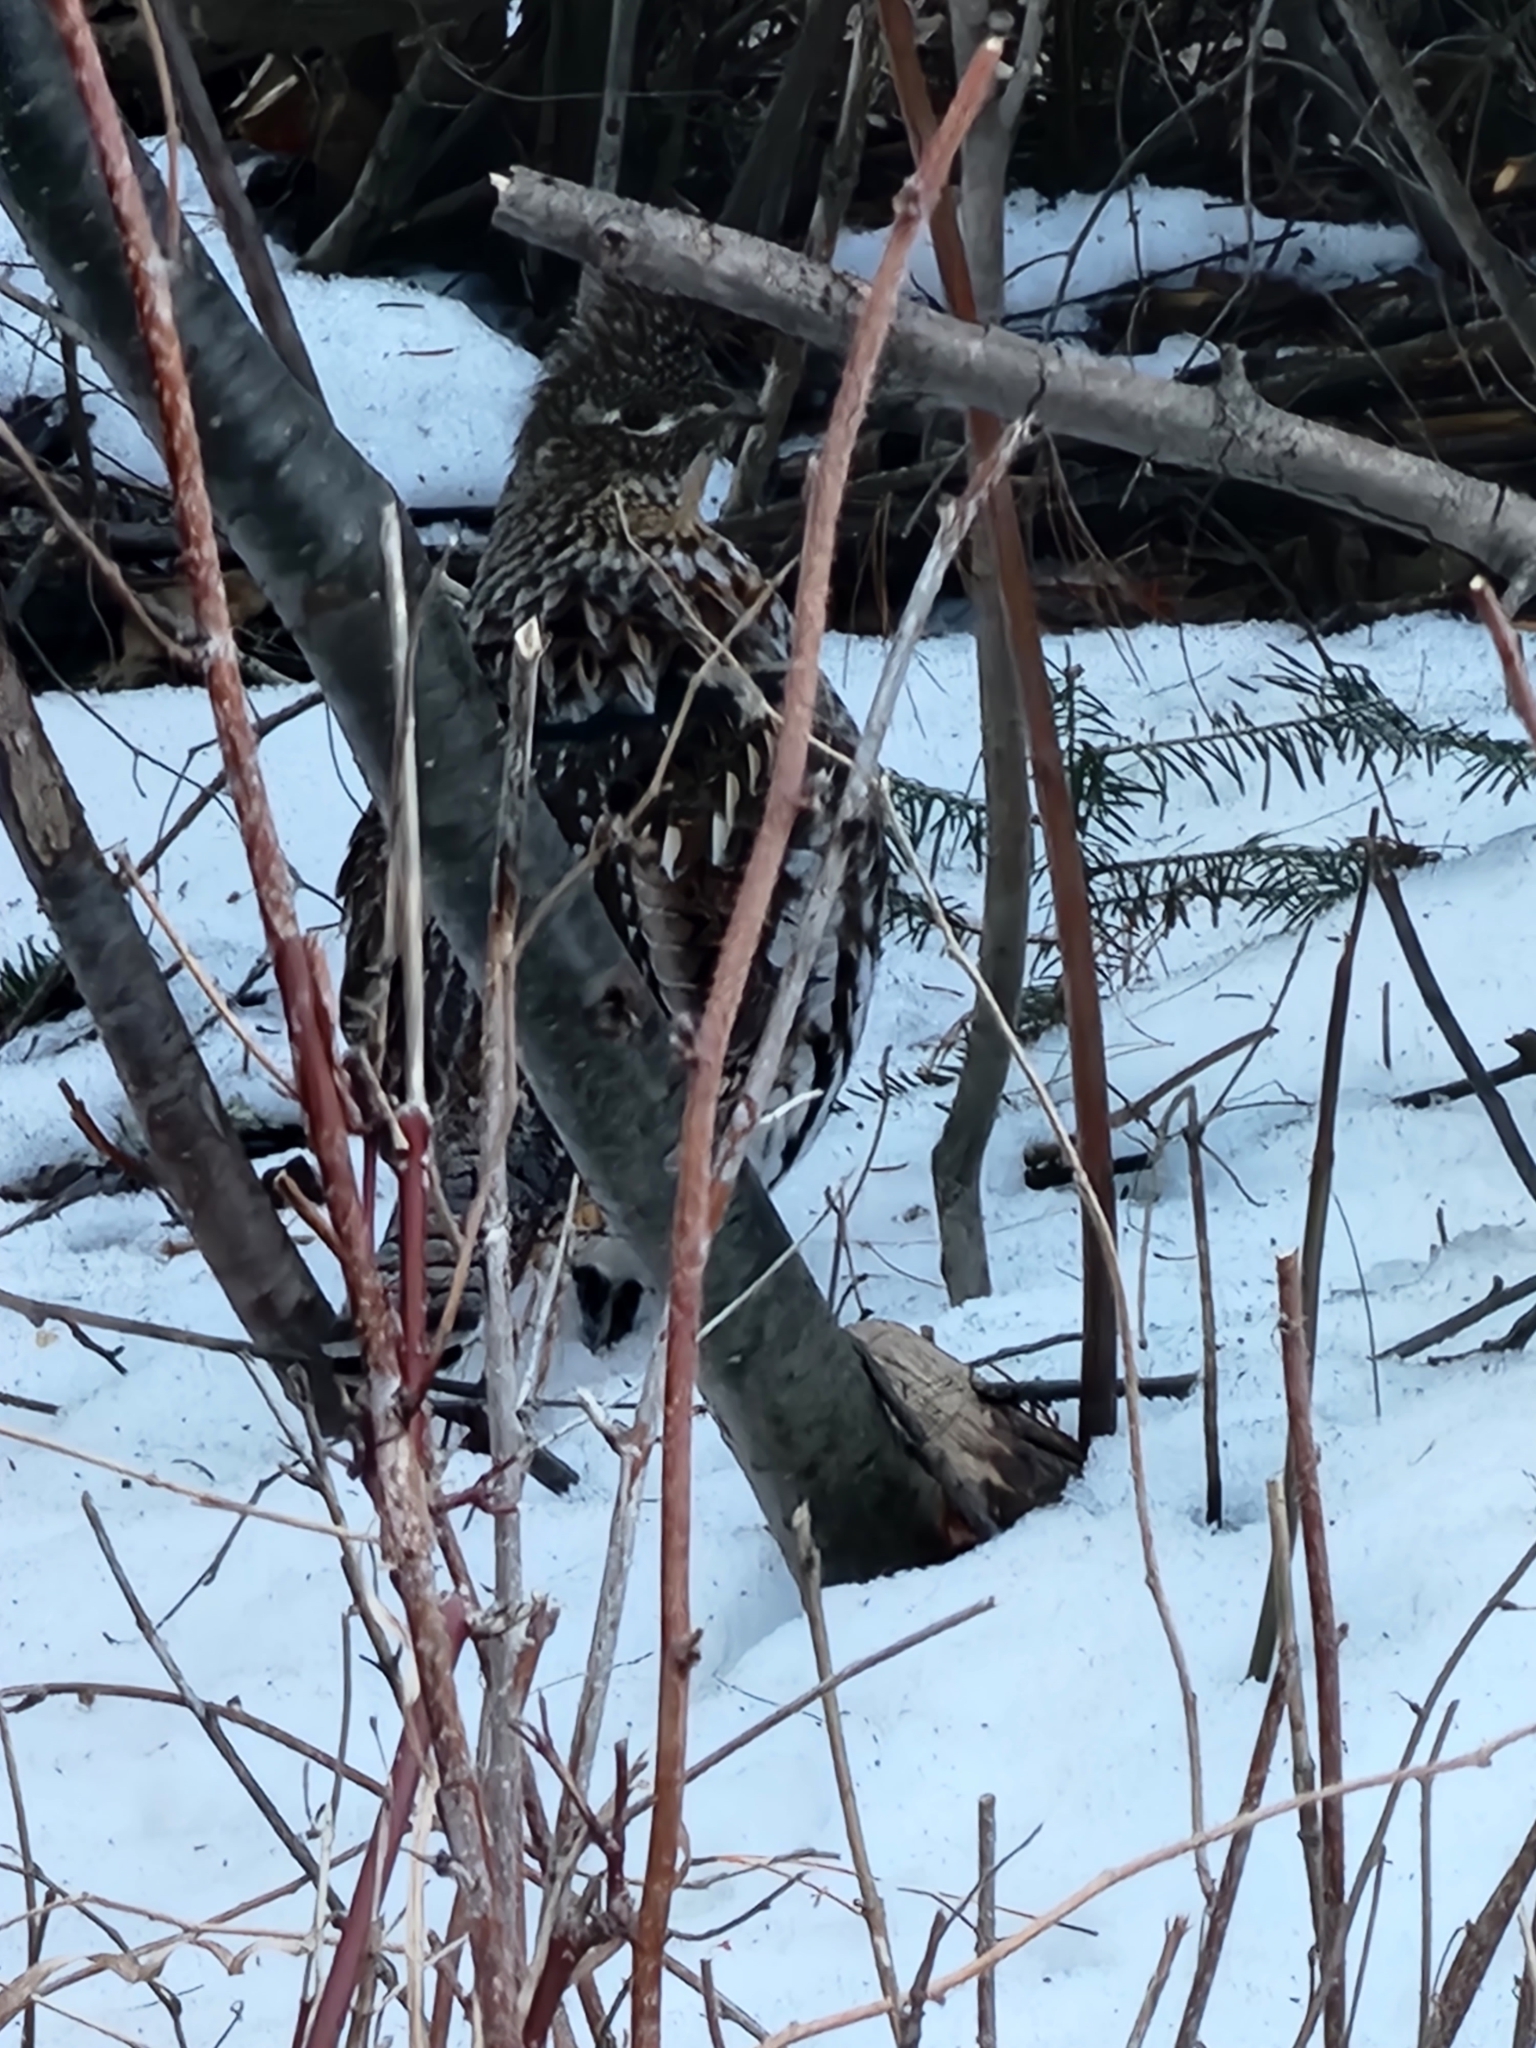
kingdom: Animalia
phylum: Chordata
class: Aves
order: Galliformes
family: Phasianidae
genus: Bonasa
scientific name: Bonasa umbellus
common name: Ruffed grouse
